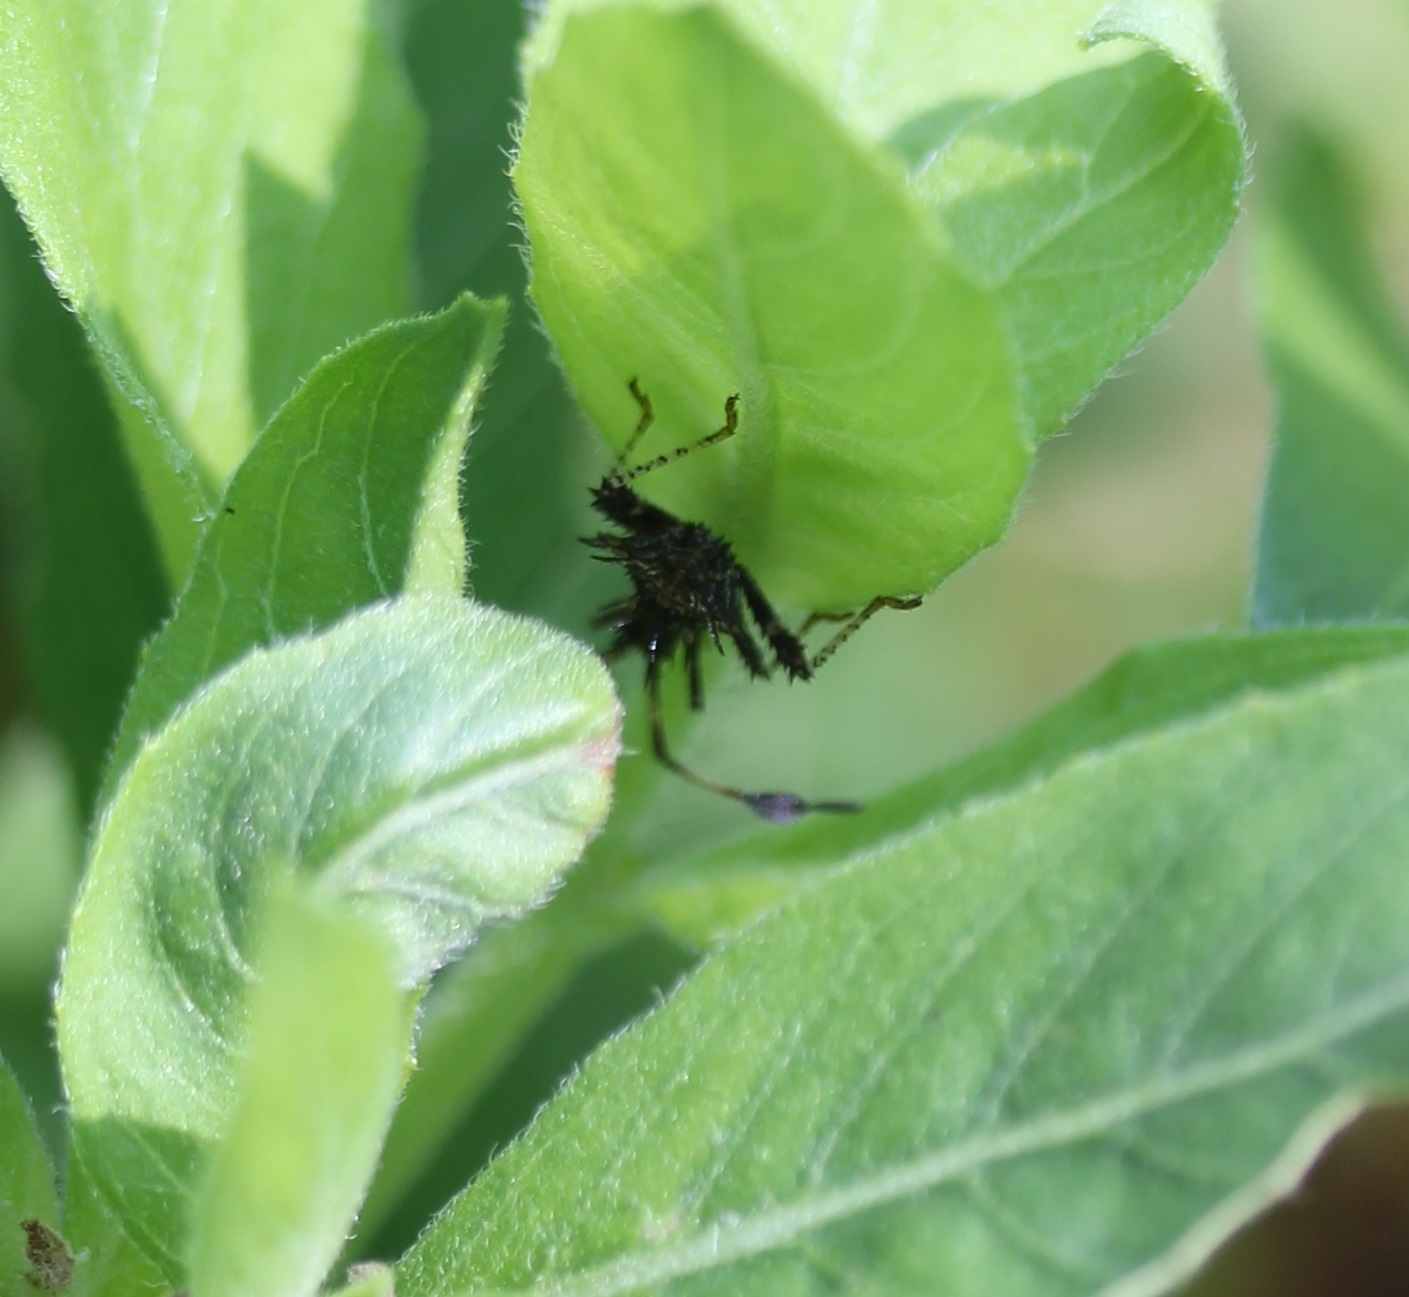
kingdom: Animalia
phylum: Arthropoda
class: Insecta
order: Hemiptera
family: Coreidae
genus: Euthochtha
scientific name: Euthochtha galeator
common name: Helmeted squash bug
